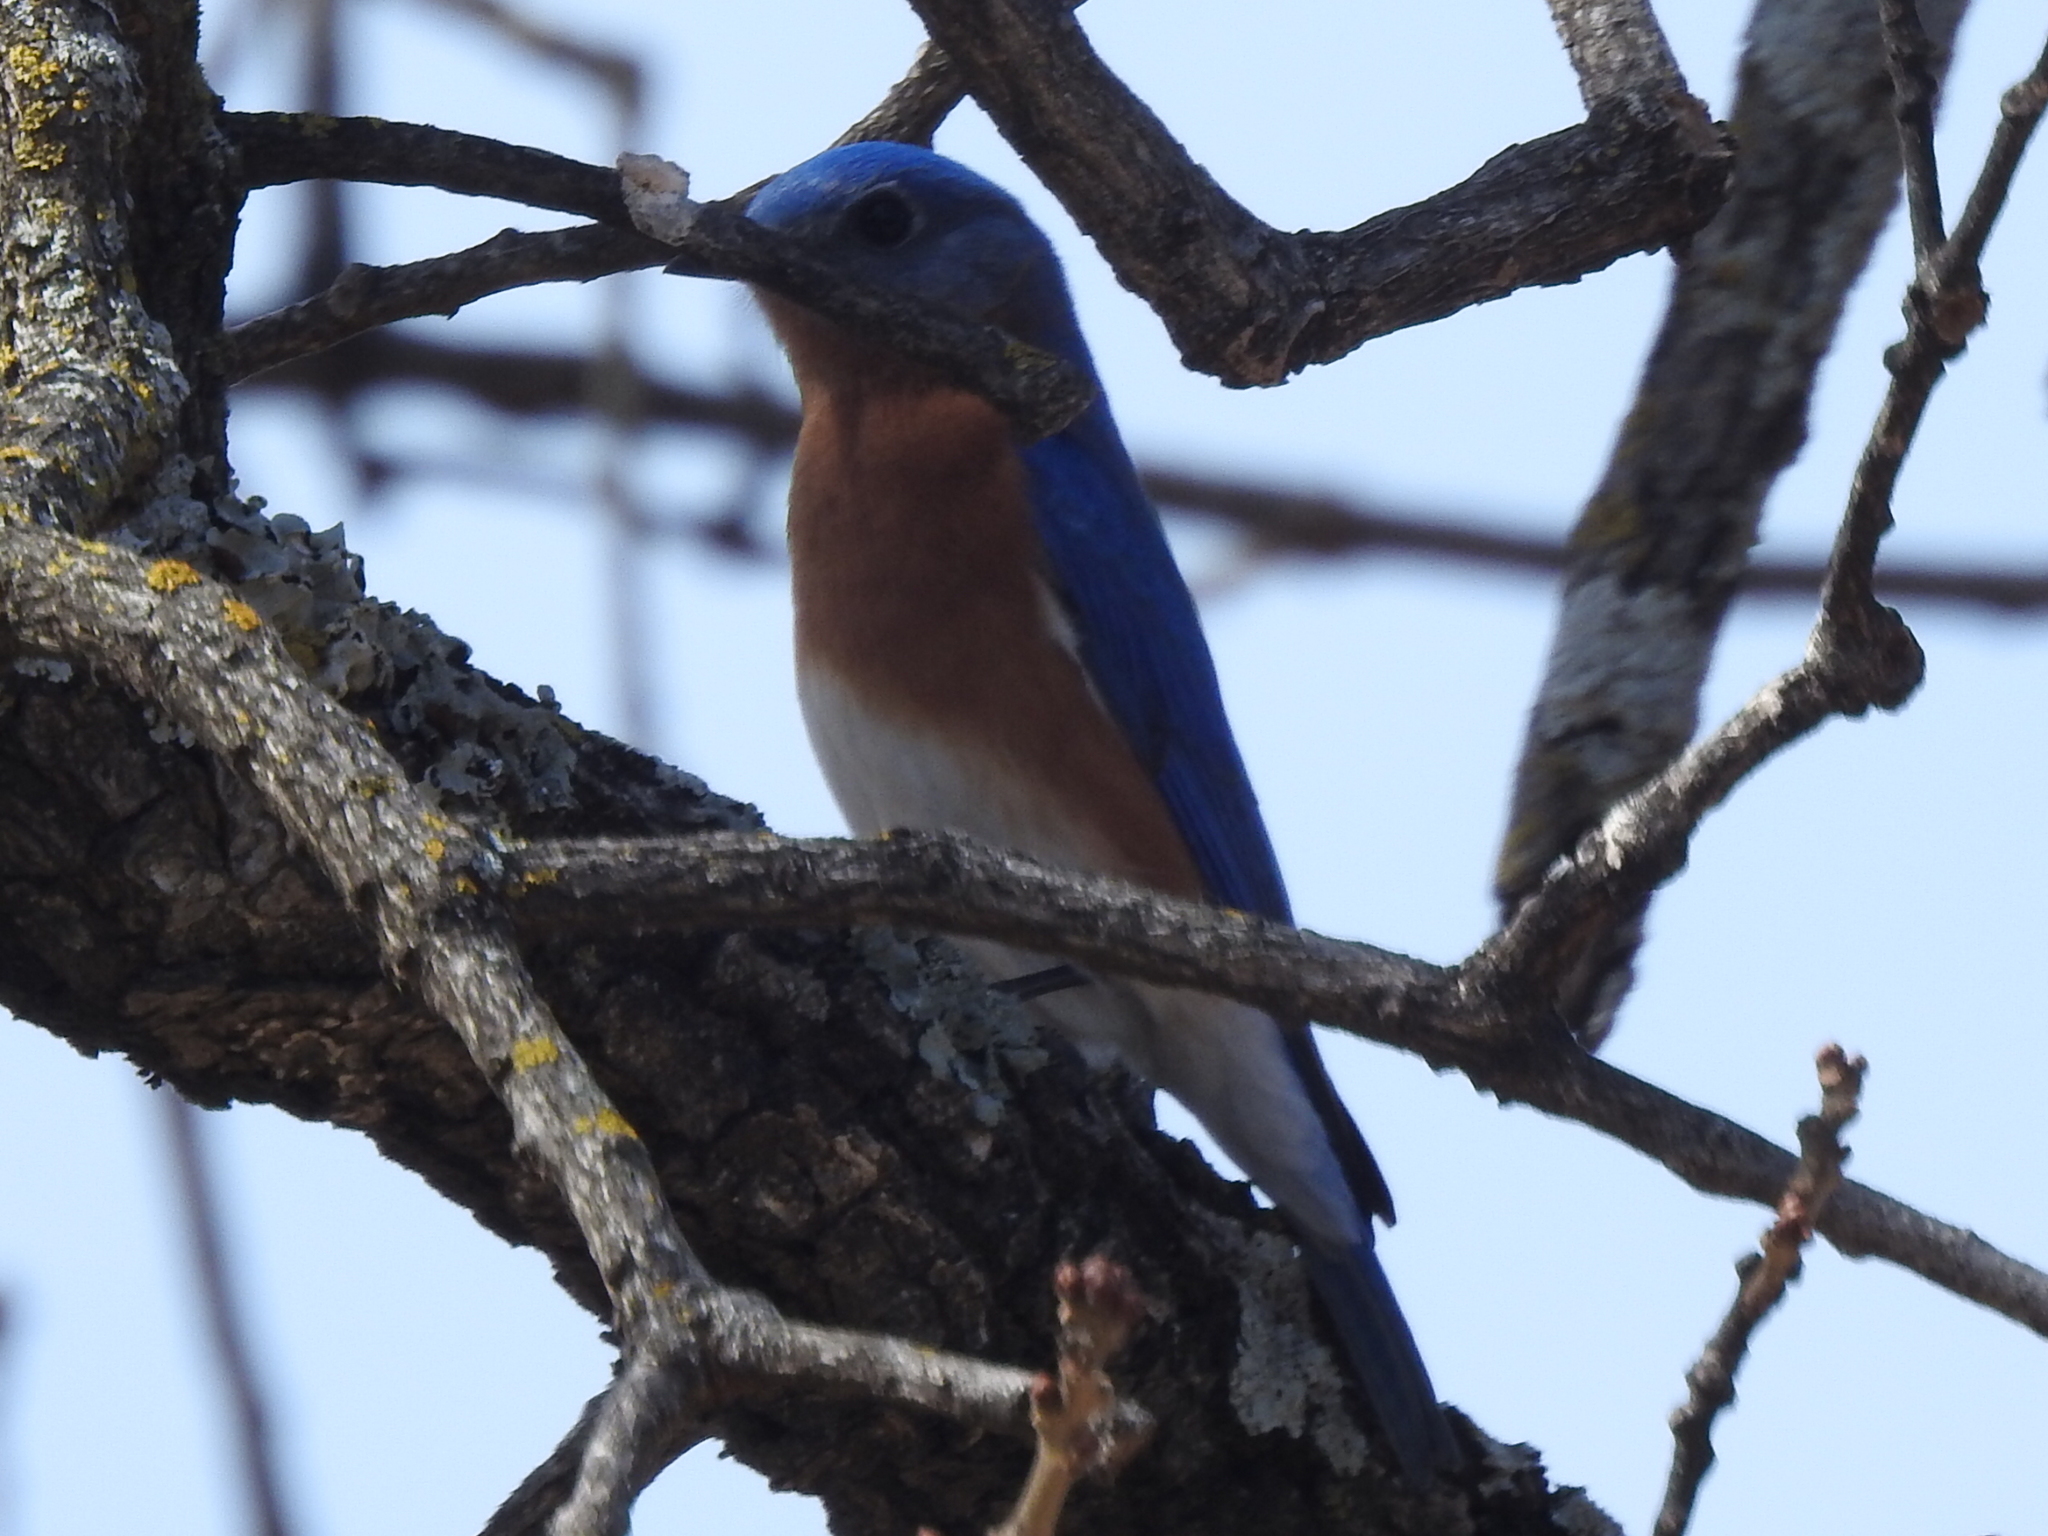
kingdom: Animalia
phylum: Chordata
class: Aves
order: Passeriformes
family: Turdidae
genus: Sialia
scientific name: Sialia sialis
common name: Eastern bluebird
